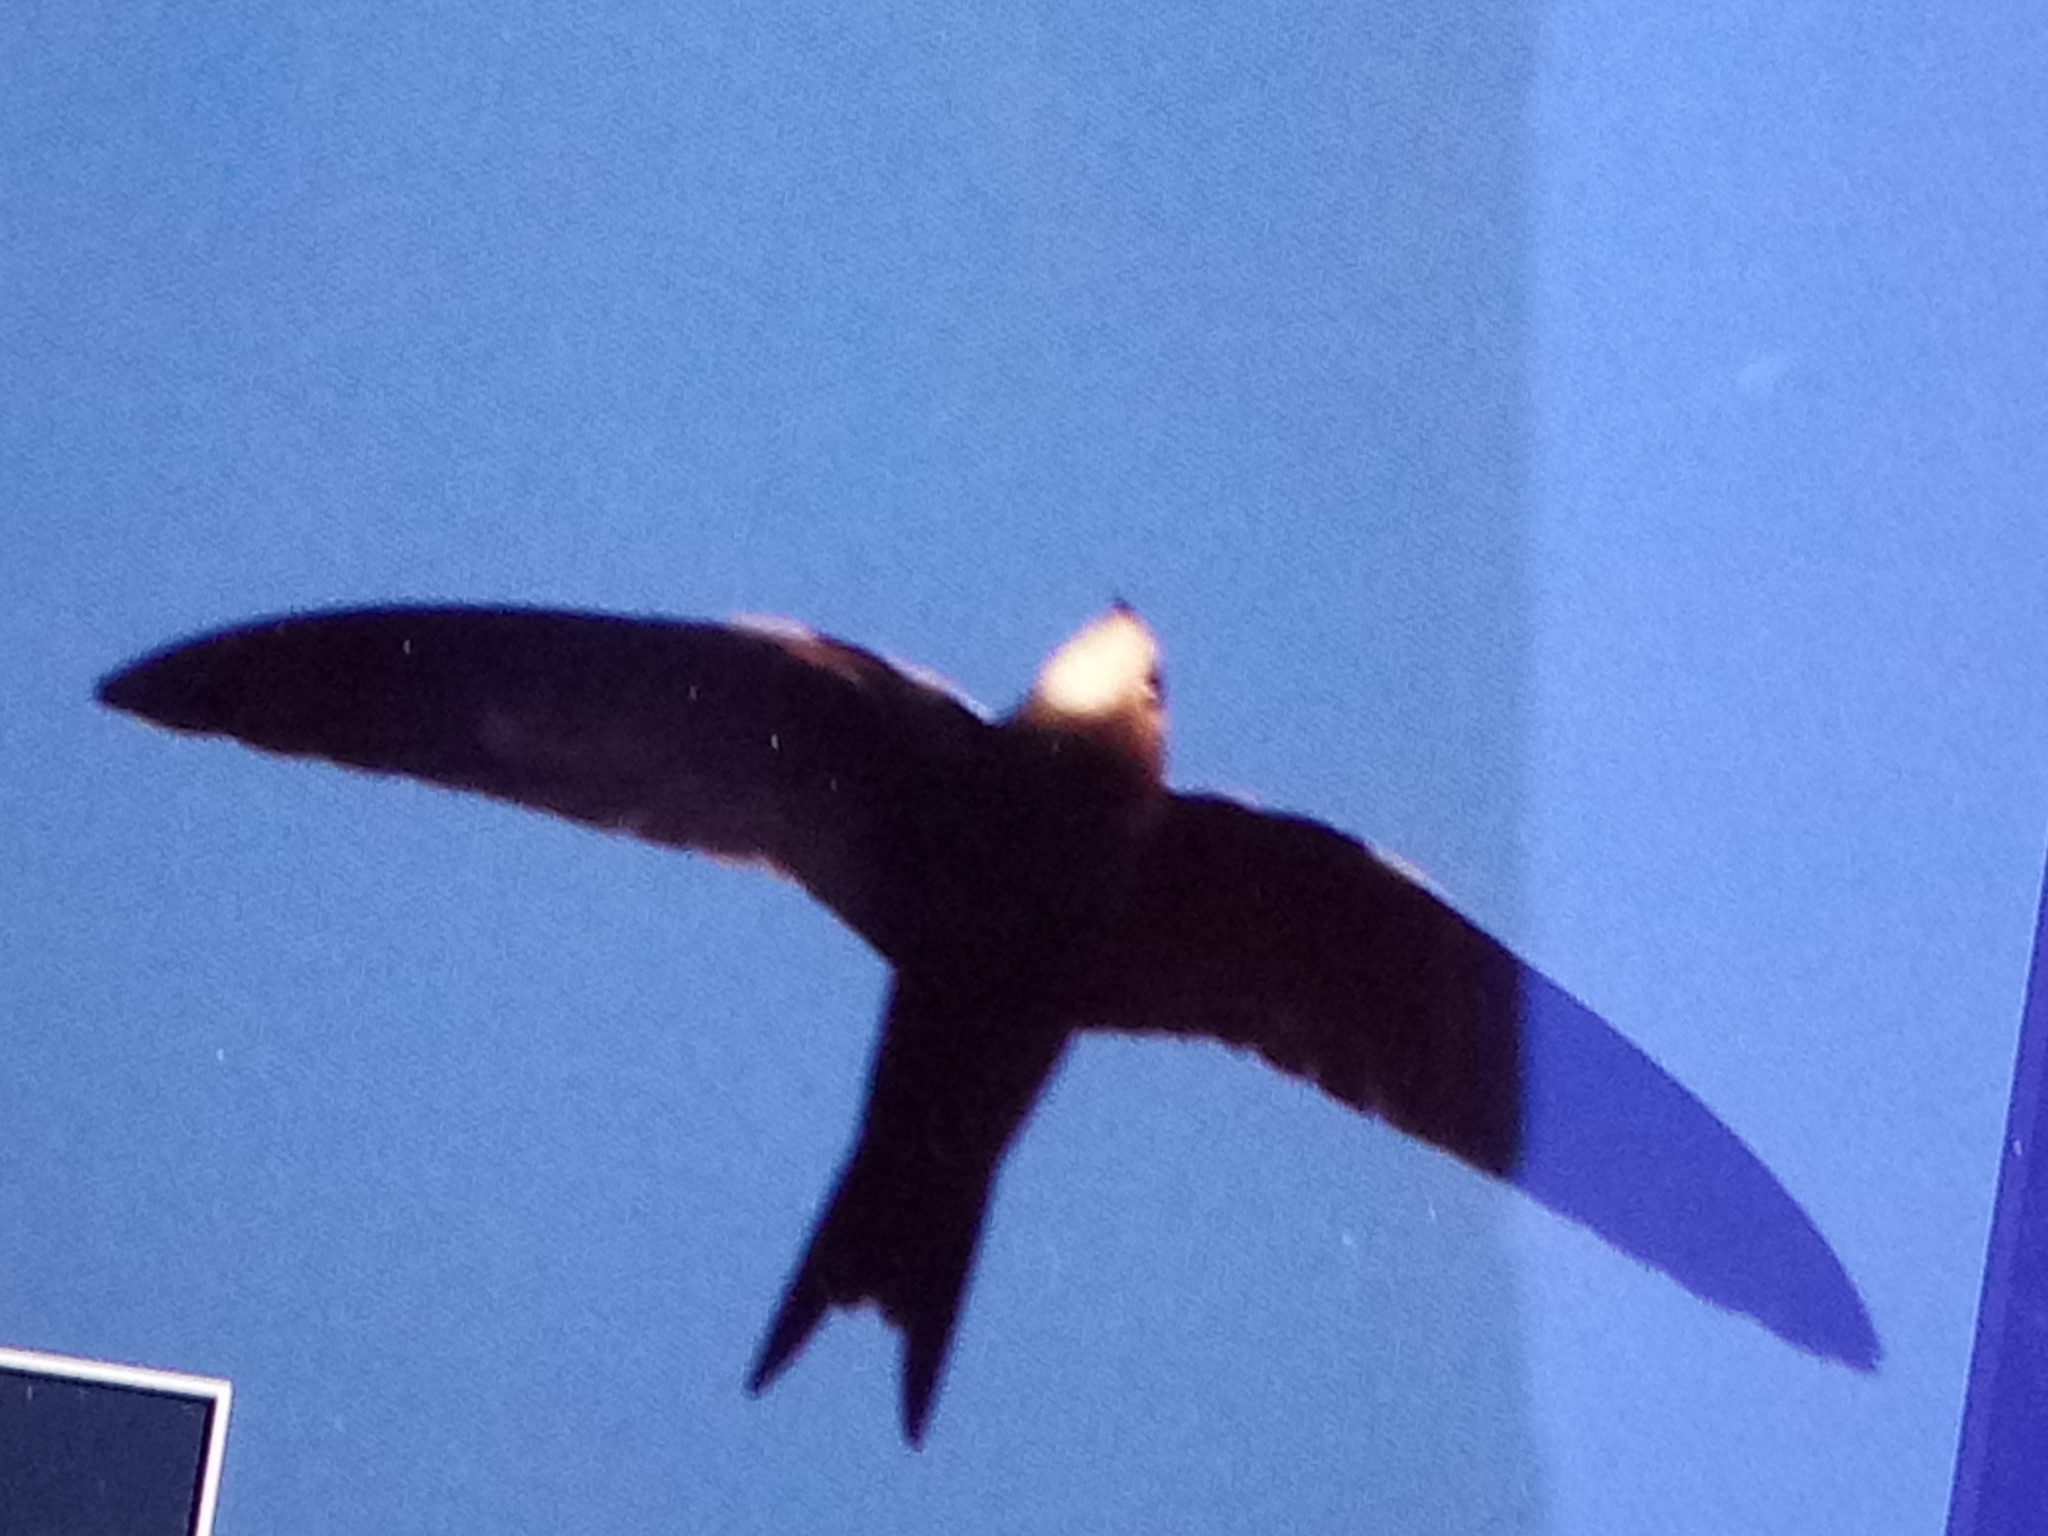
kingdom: Animalia
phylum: Chordata
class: Aves
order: Apodiformes
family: Apodidae
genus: Apus
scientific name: Apus pallidus
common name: Pallid swift
